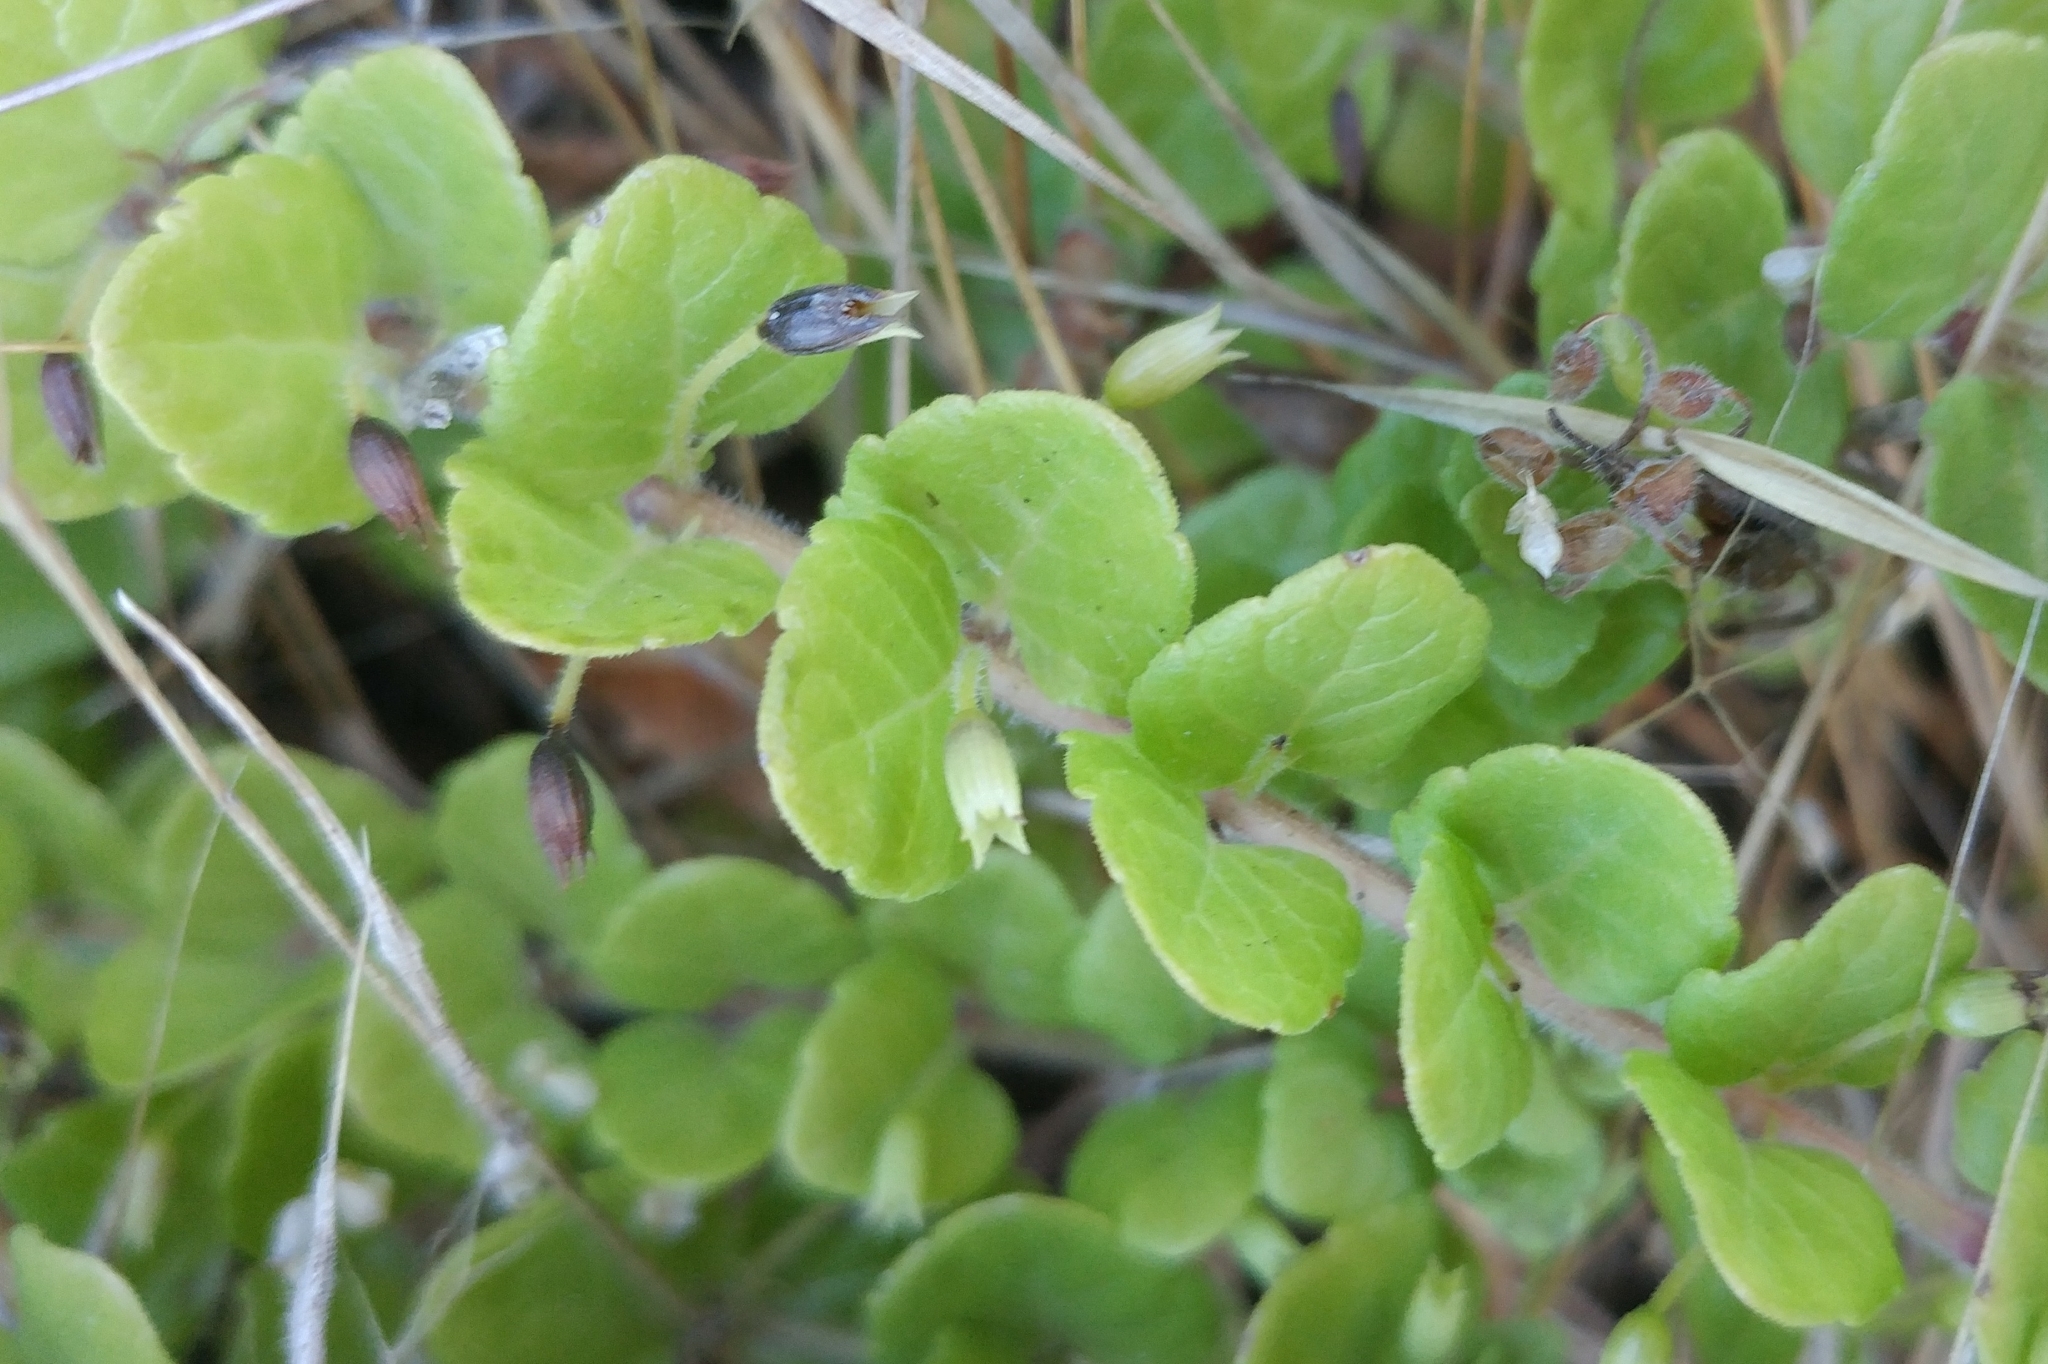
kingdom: Plantae
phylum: Tracheophyta
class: Magnoliopsida
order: Lamiales
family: Lamiaceae
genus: Micromeria
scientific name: Micromeria douglasii
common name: Yerba buena
